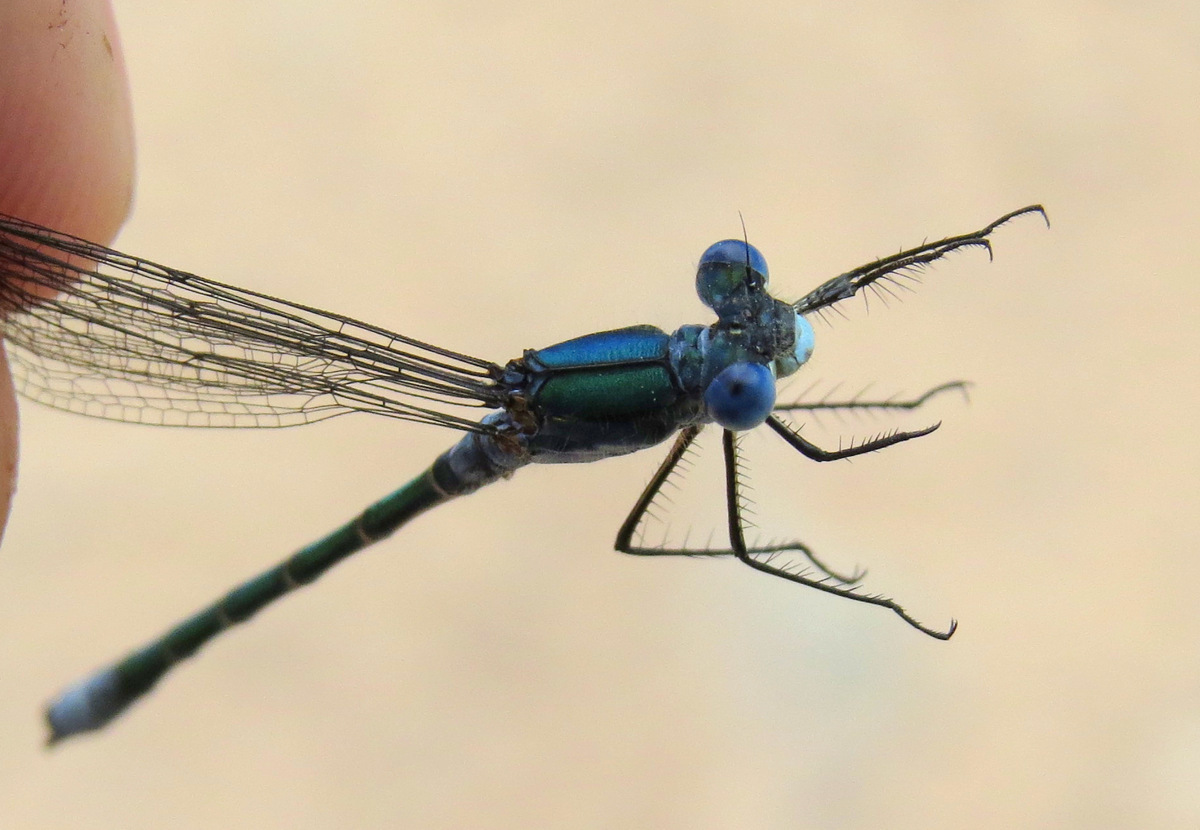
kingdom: Animalia
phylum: Arthropoda
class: Insecta
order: Odonata
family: Lestidae
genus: Lestes
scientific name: Lestes dryas
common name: Scarce emerald damselfly
